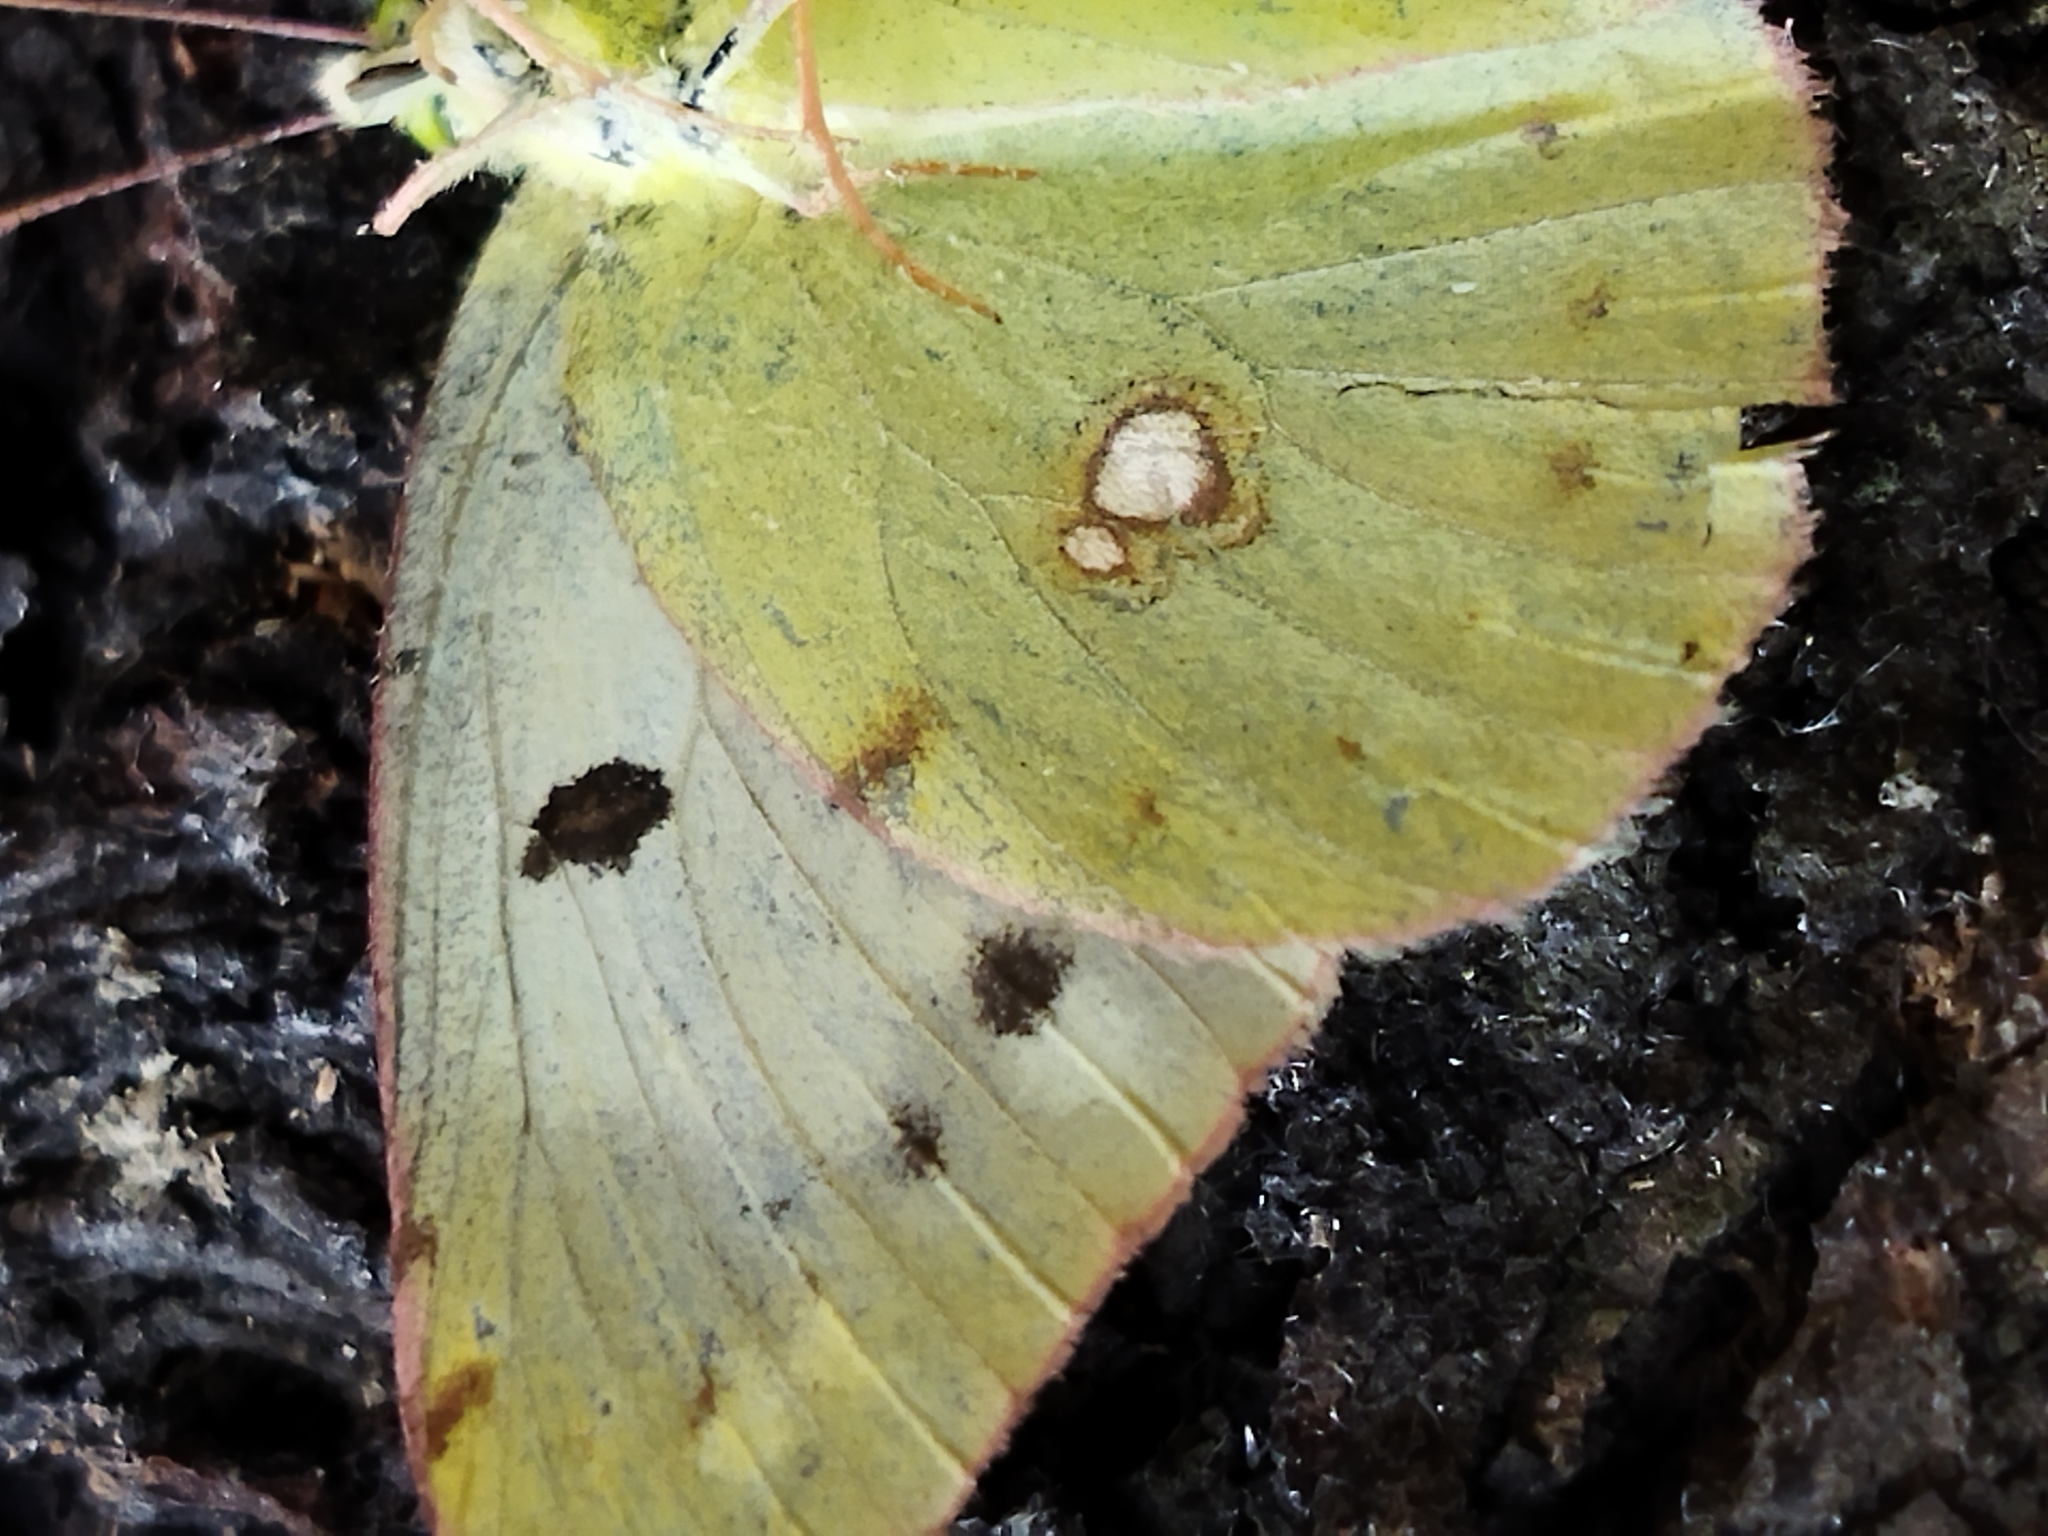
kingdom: Animalia
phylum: Arthropoda
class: Insecta
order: Lepidoptera
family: Pieridae
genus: Colias
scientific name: Colias croceus
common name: Clouded yellow
